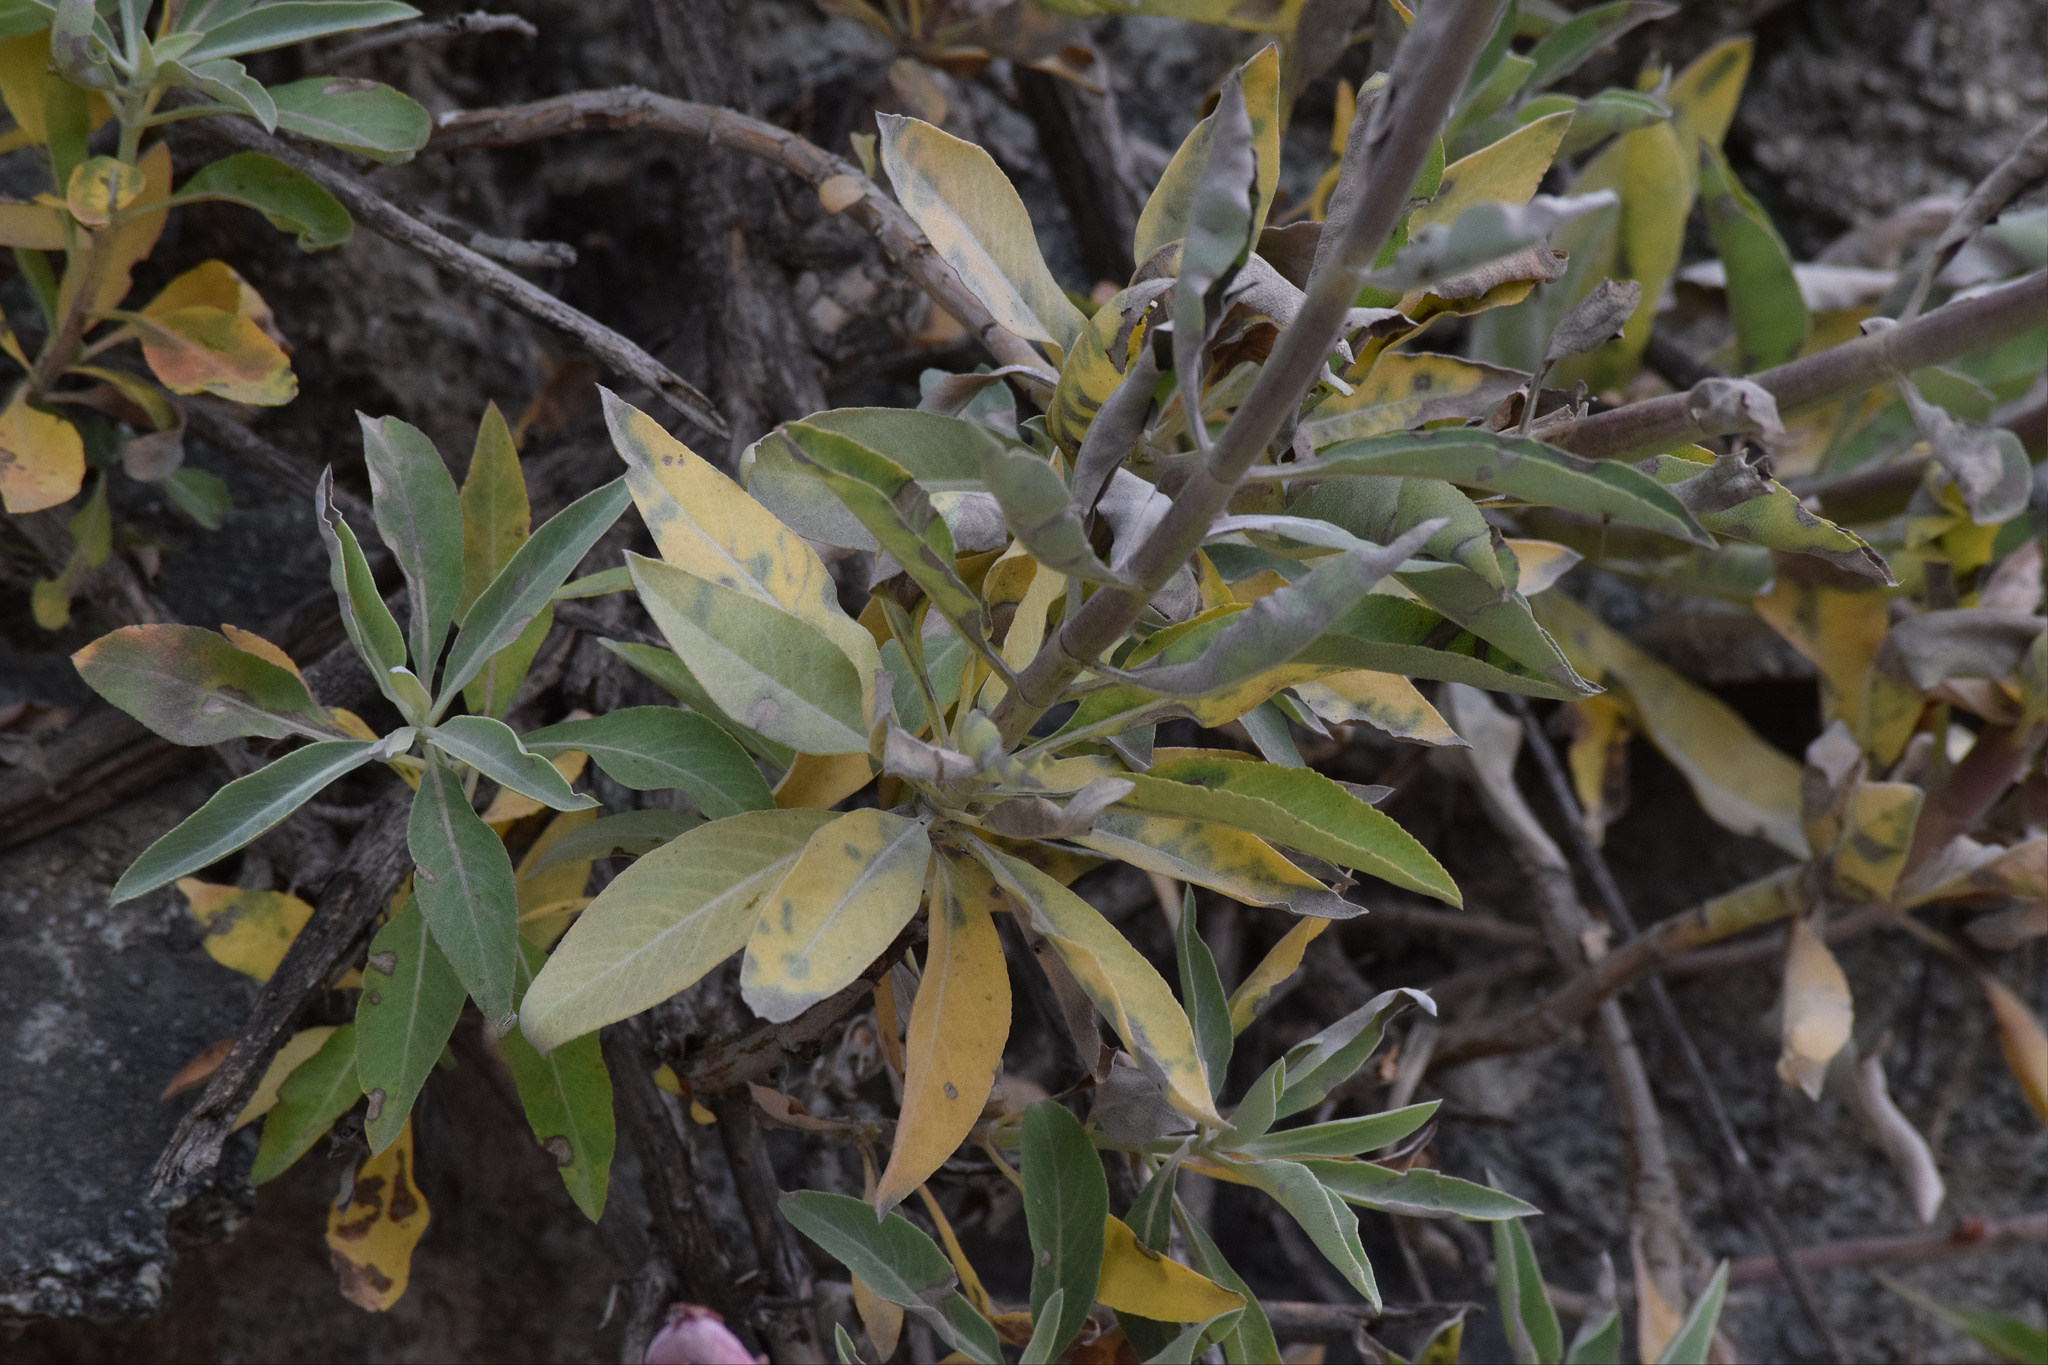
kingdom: Plantae
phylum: Tracheophyta
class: Magnoliopsida
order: Lamiales
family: Lamiaceae
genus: Salvia
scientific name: Salvia apiana
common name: White sage
